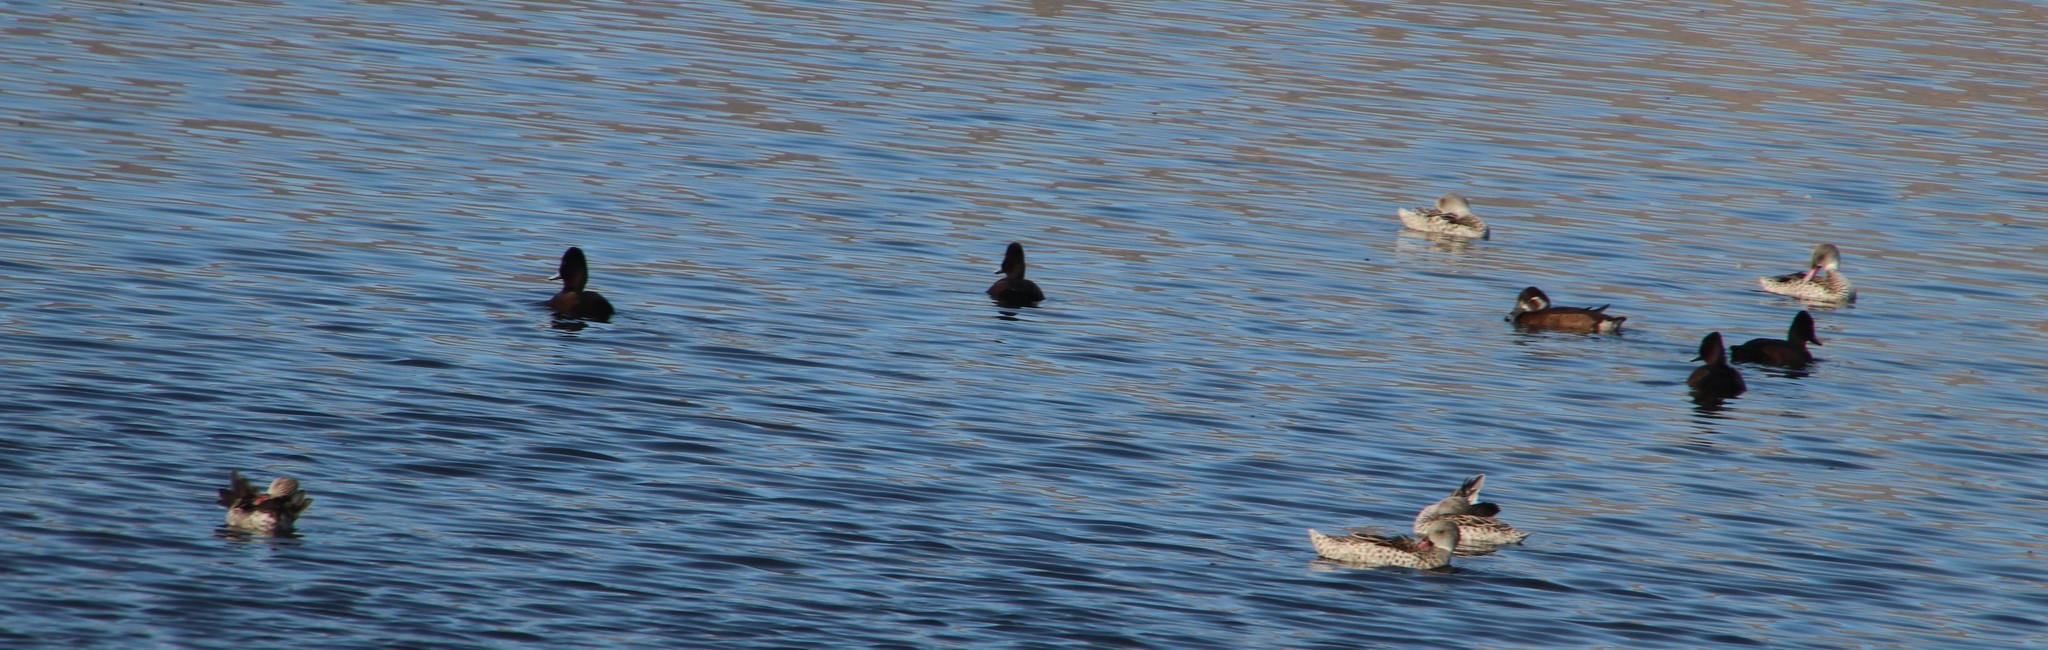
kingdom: Animalia
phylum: Chordata
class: Aves
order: Anseriformes
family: Anatidae
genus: Netta
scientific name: Netta erythrophthalma
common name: Southern pochard
